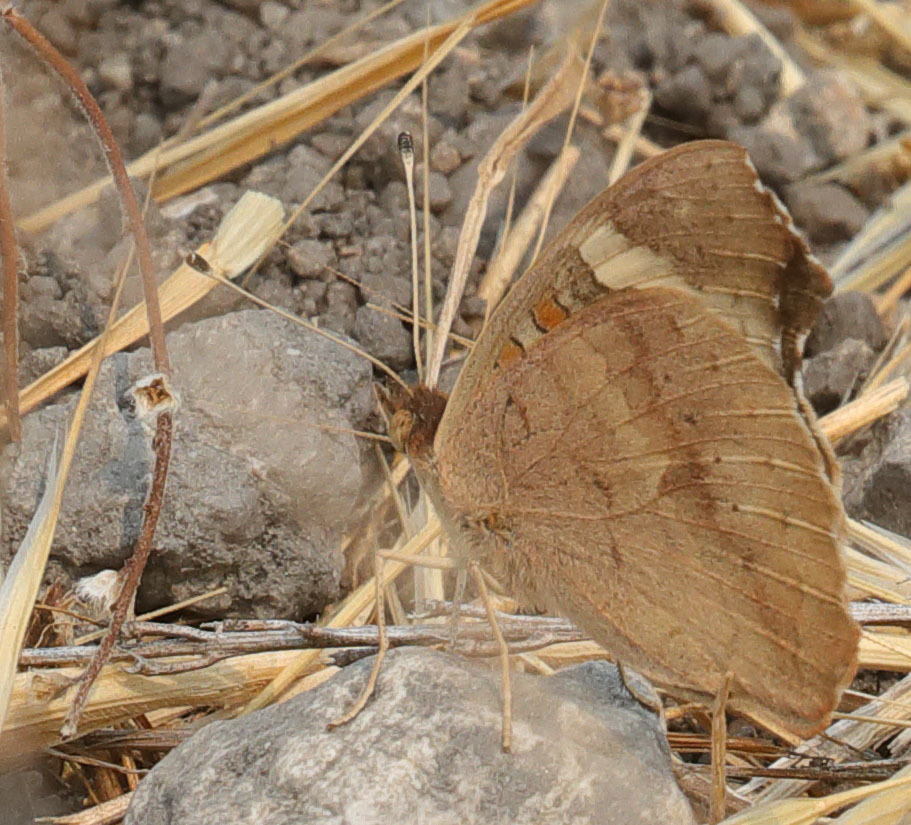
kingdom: Animalia
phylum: Arthropoda
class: Insecta
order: Lepidoptera
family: Nymphalidae
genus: Junonia
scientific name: Junonia grisea
